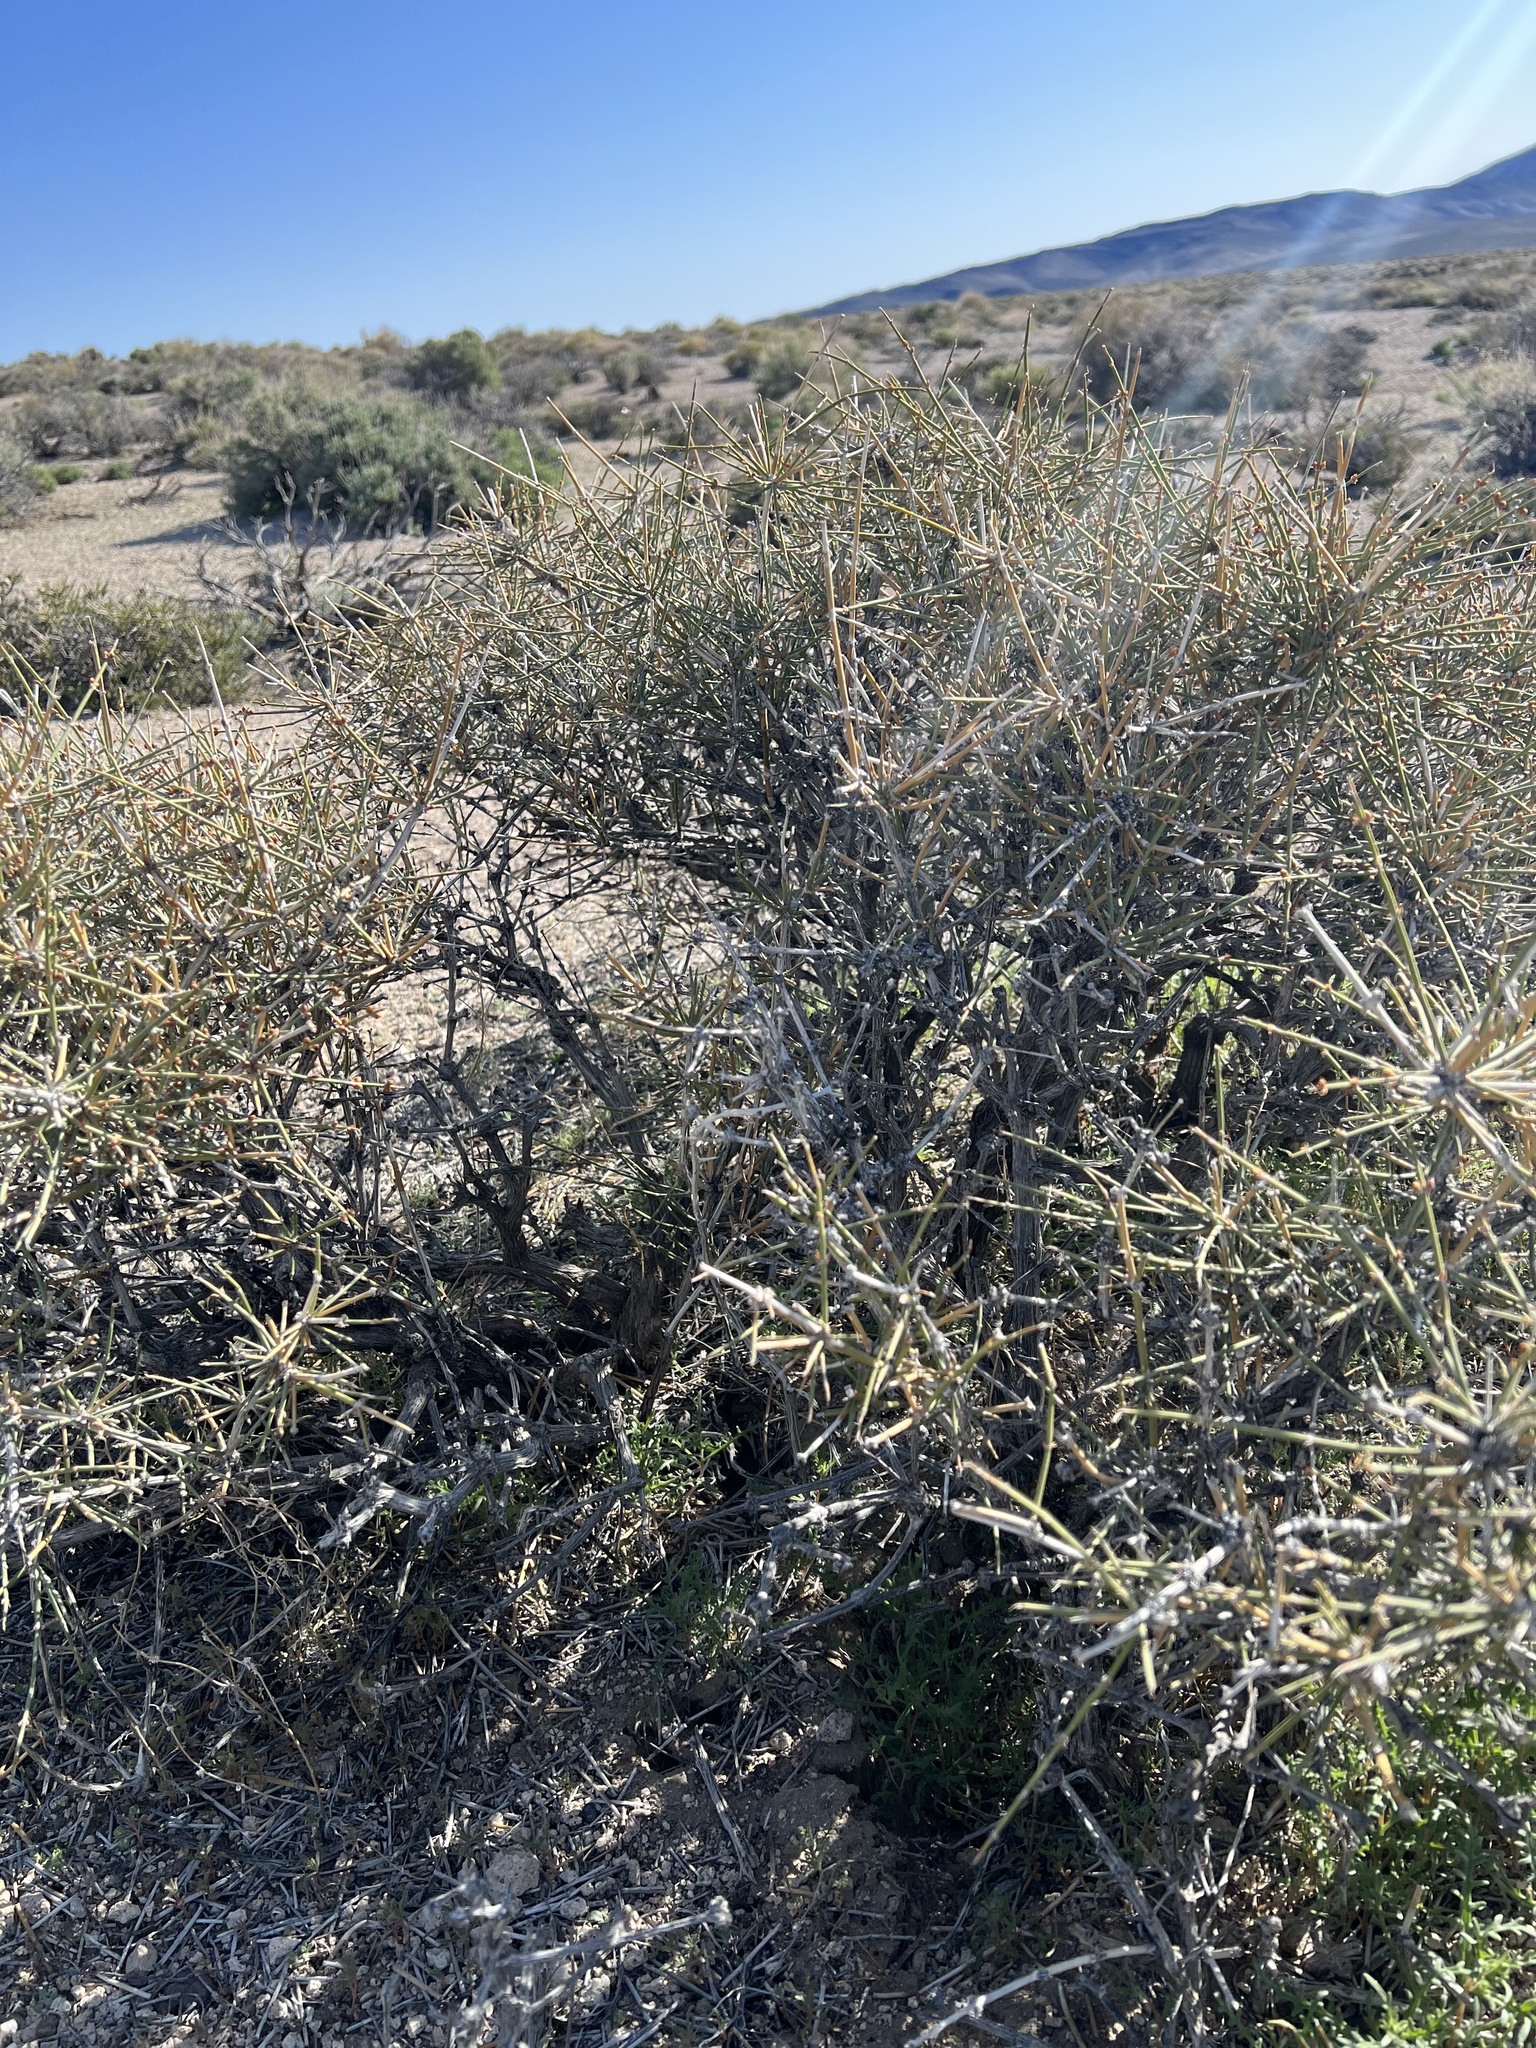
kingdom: Plantae
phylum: Tracheophyta
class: Gnetopsida
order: Ephedrales
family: Ephedraceae
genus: Ephedra
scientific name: Ephedra nevadensis
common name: Gray ephedra
